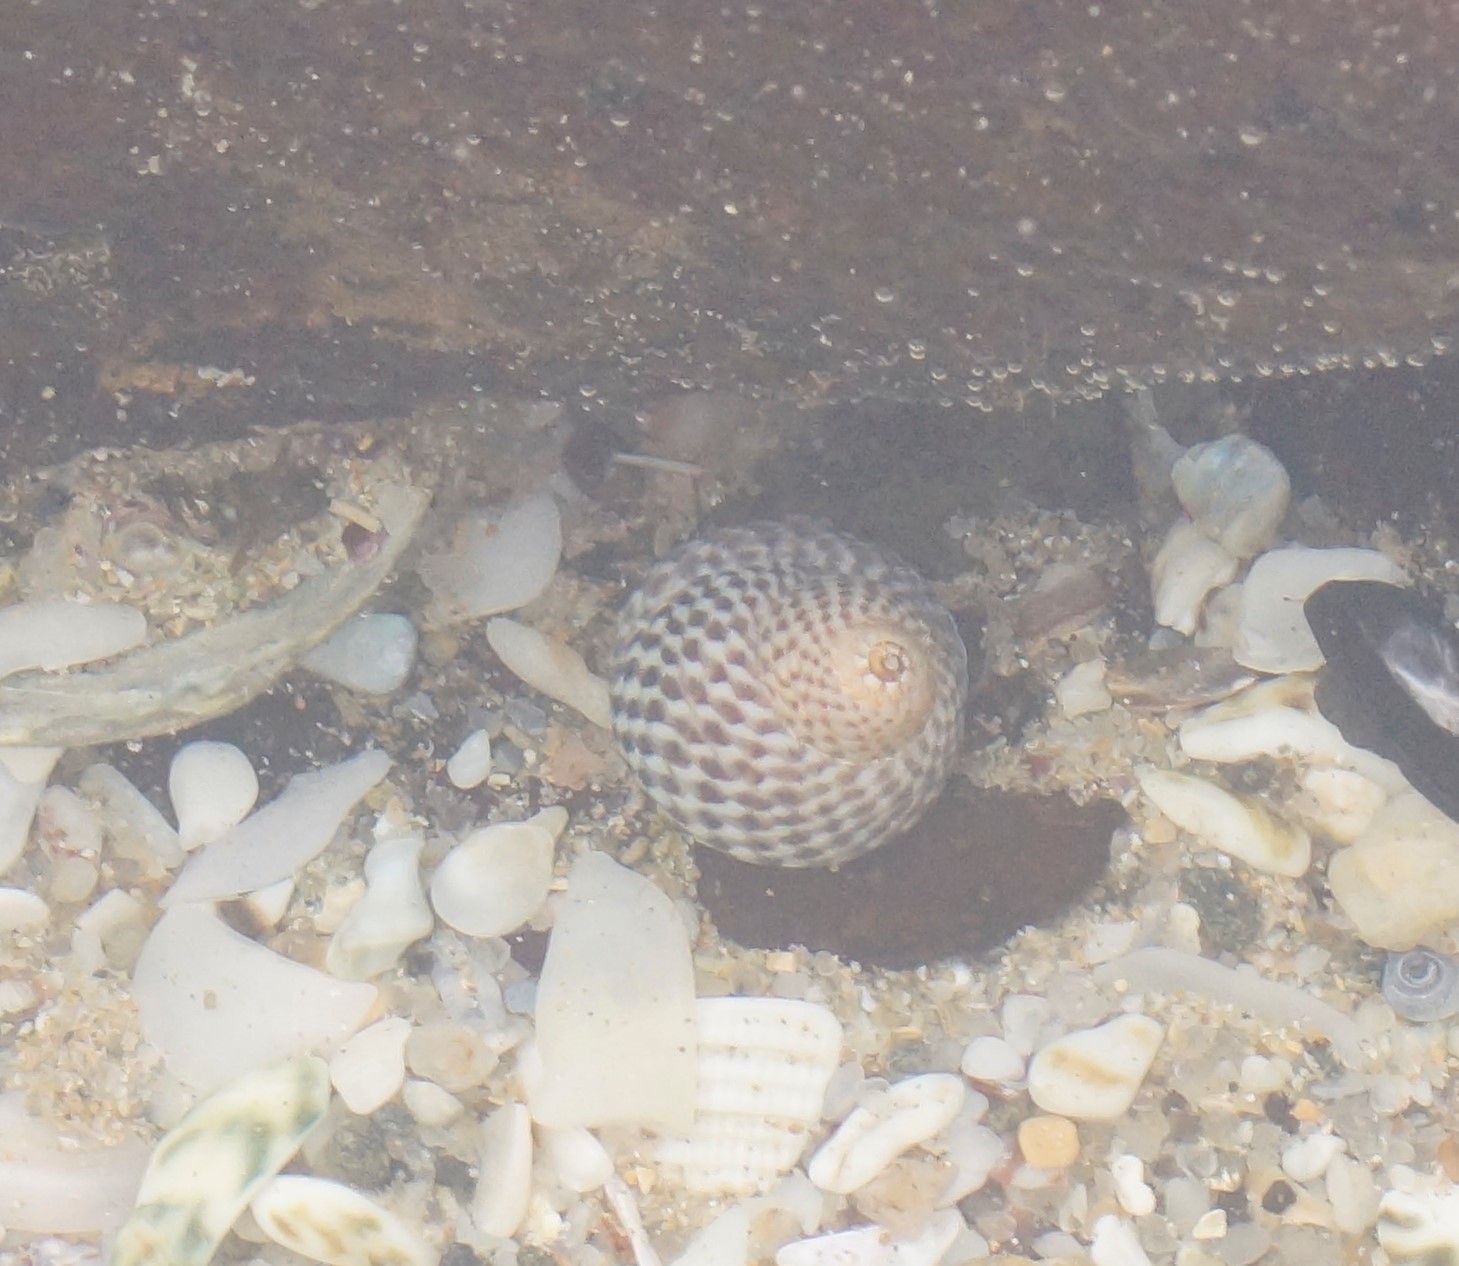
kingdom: Animalia
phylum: Mollusca
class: Gastropoda
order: Trochida
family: Trochidae
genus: Chlorodiloma
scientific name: Chlorodiloma adelaidae
